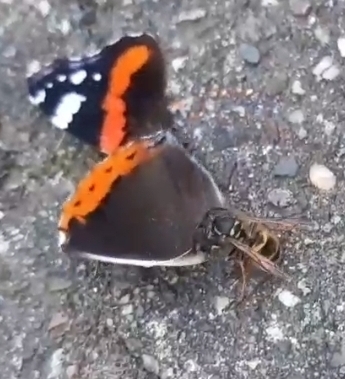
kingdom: Animalia
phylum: Arthropoda
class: Insecta
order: Lepidoptera
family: Nymphalidae
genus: Vanessa
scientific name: Vanessa atalanta
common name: Red admiral
